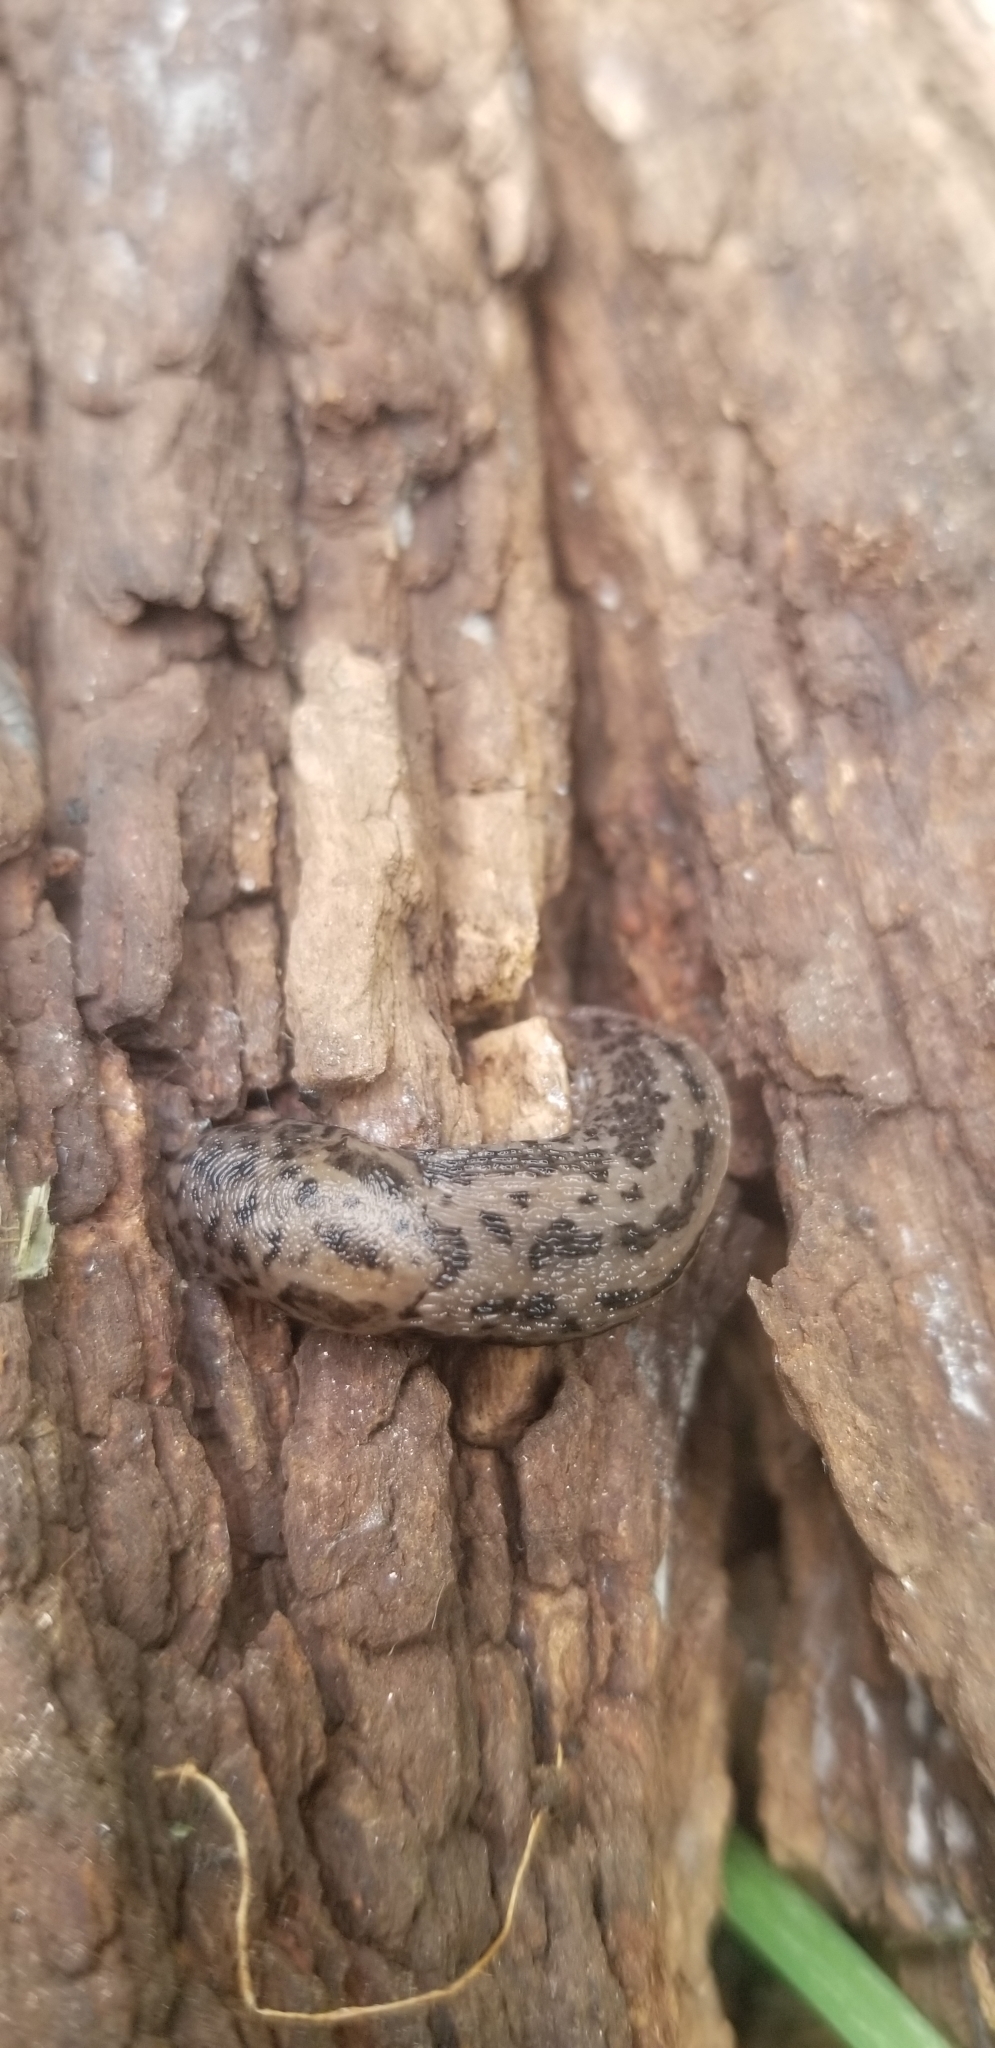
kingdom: Animalia
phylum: Mollusca
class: Gastropoda
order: Stylommatophora
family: Limacidae
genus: Limax
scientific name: Limax maximus
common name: Great grey slug
